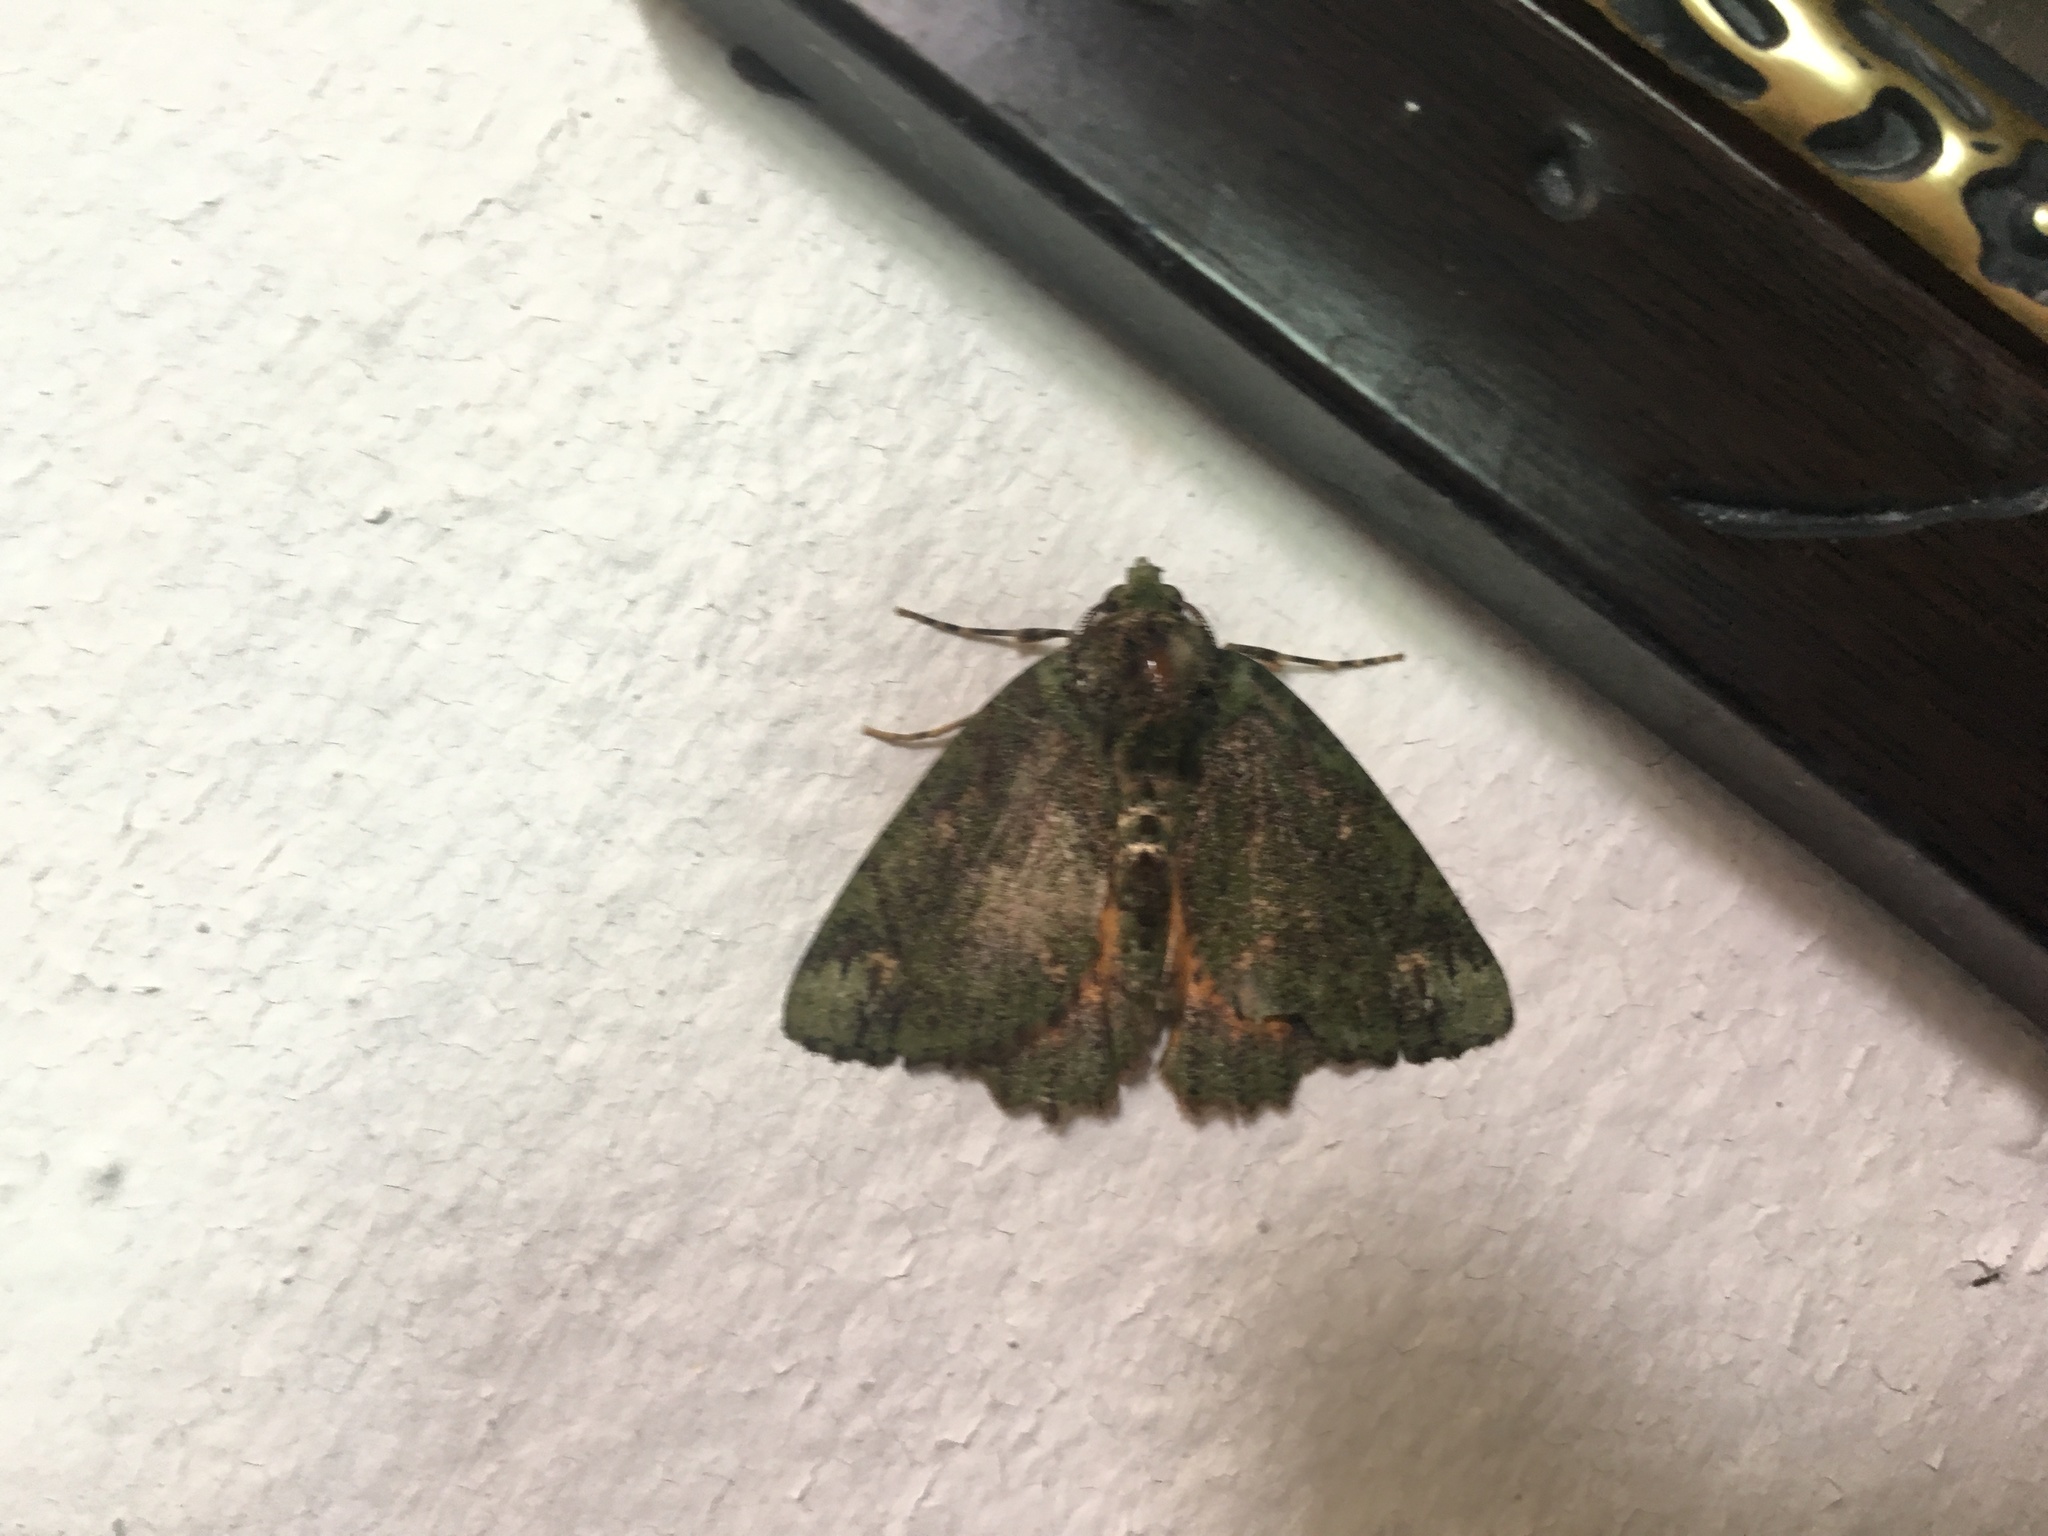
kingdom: Animalia
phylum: Arthropoda
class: Insecta
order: Lepidoptera
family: Geometridae
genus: Dindica
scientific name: Dindica alaopis
